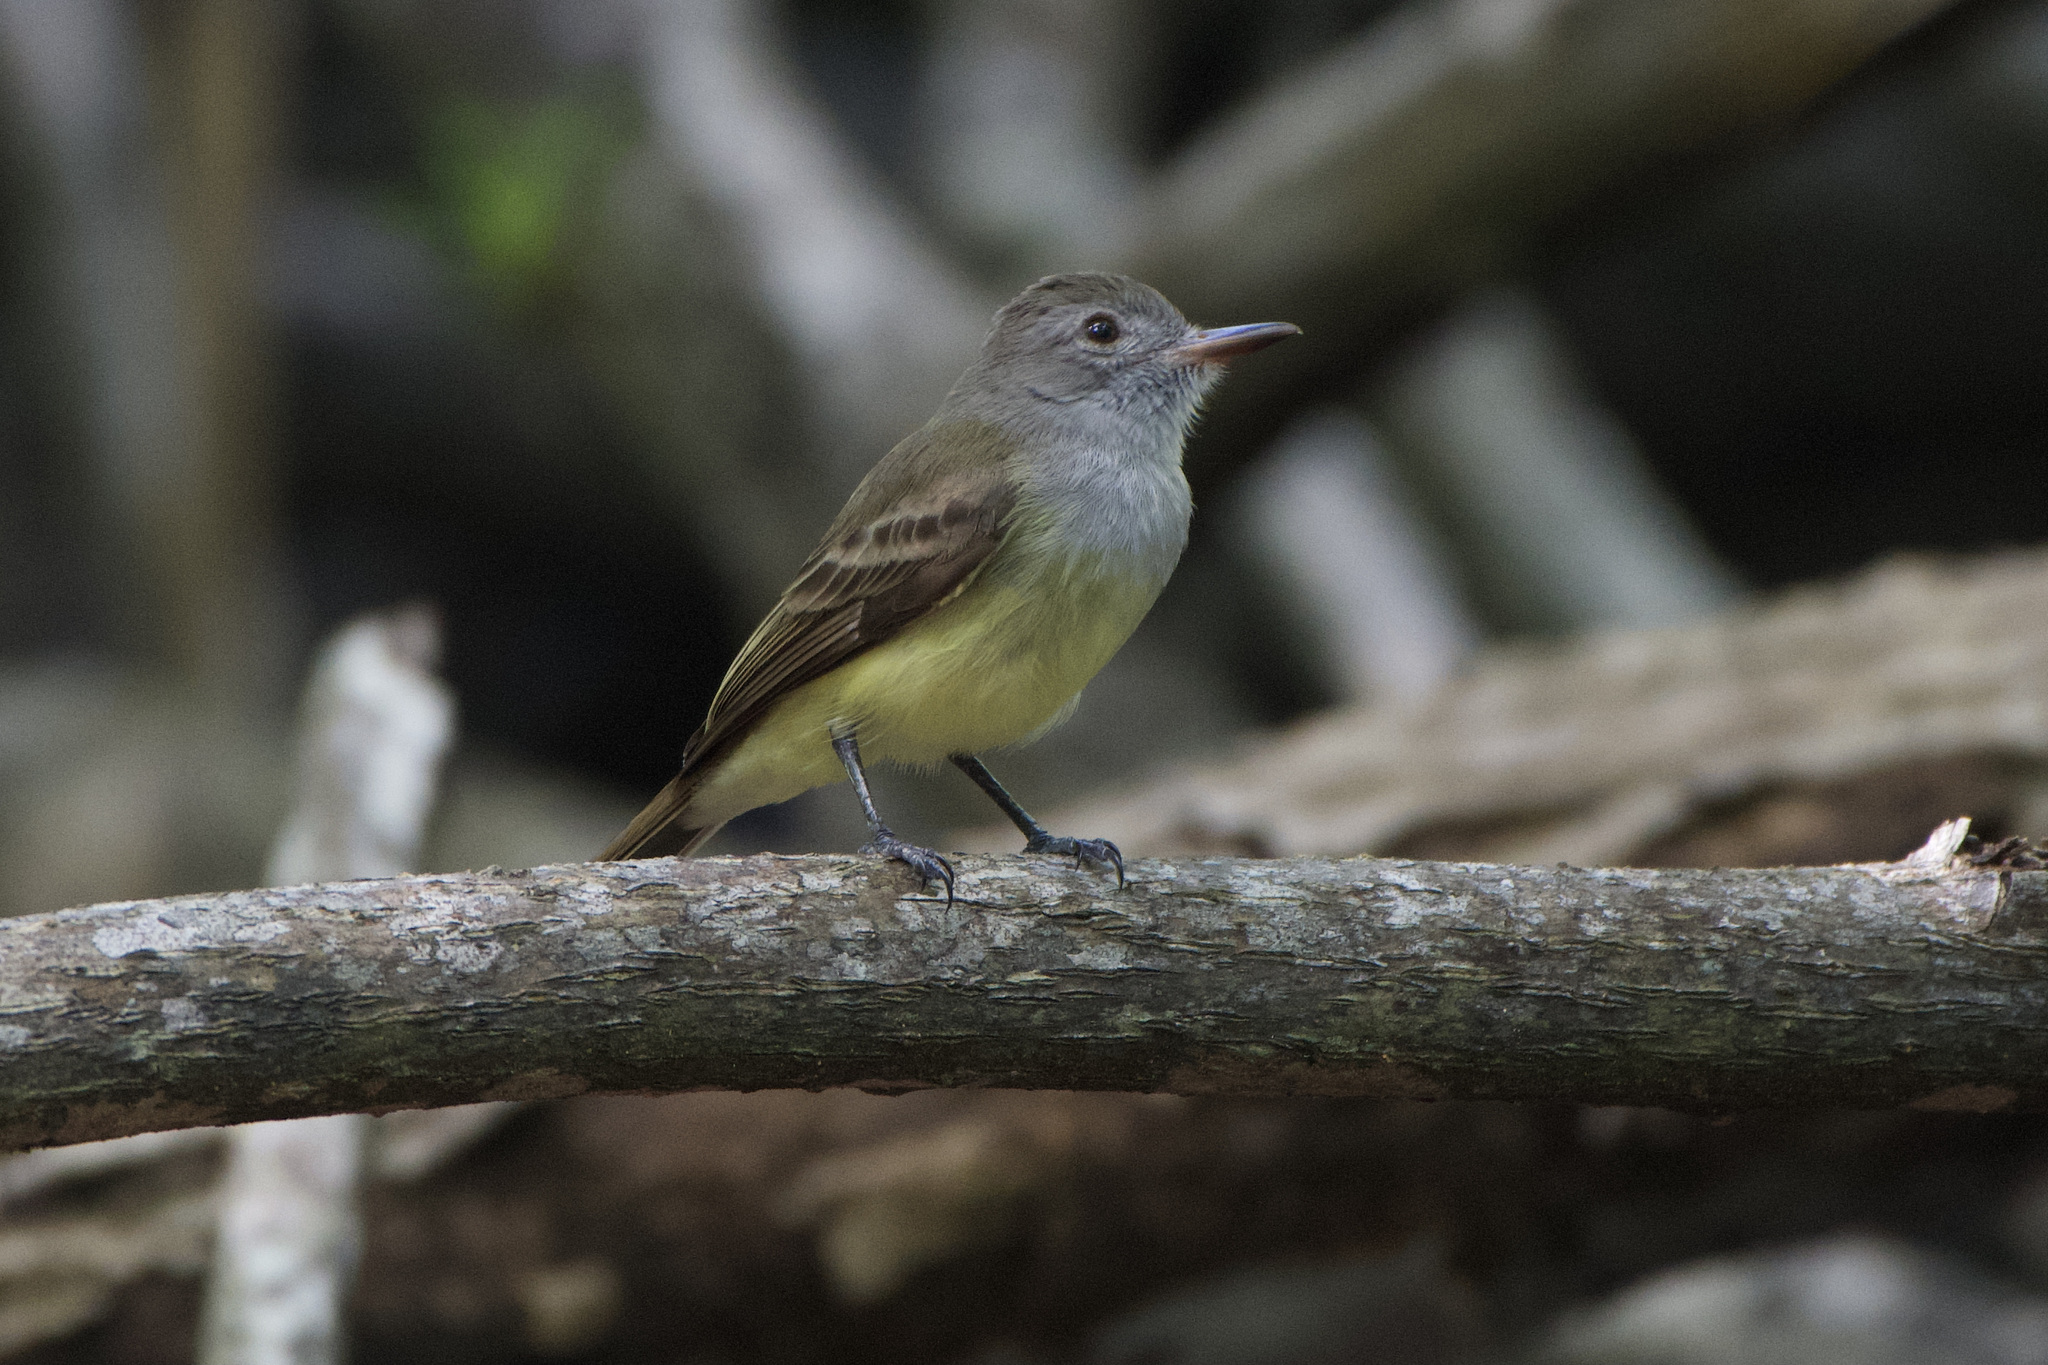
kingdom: Animalia
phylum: Chordata
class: Aves
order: Passeriformes
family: Tyrannidae
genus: Myiarchus
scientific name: Myiarchus panamensis
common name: Panama flycatcher
